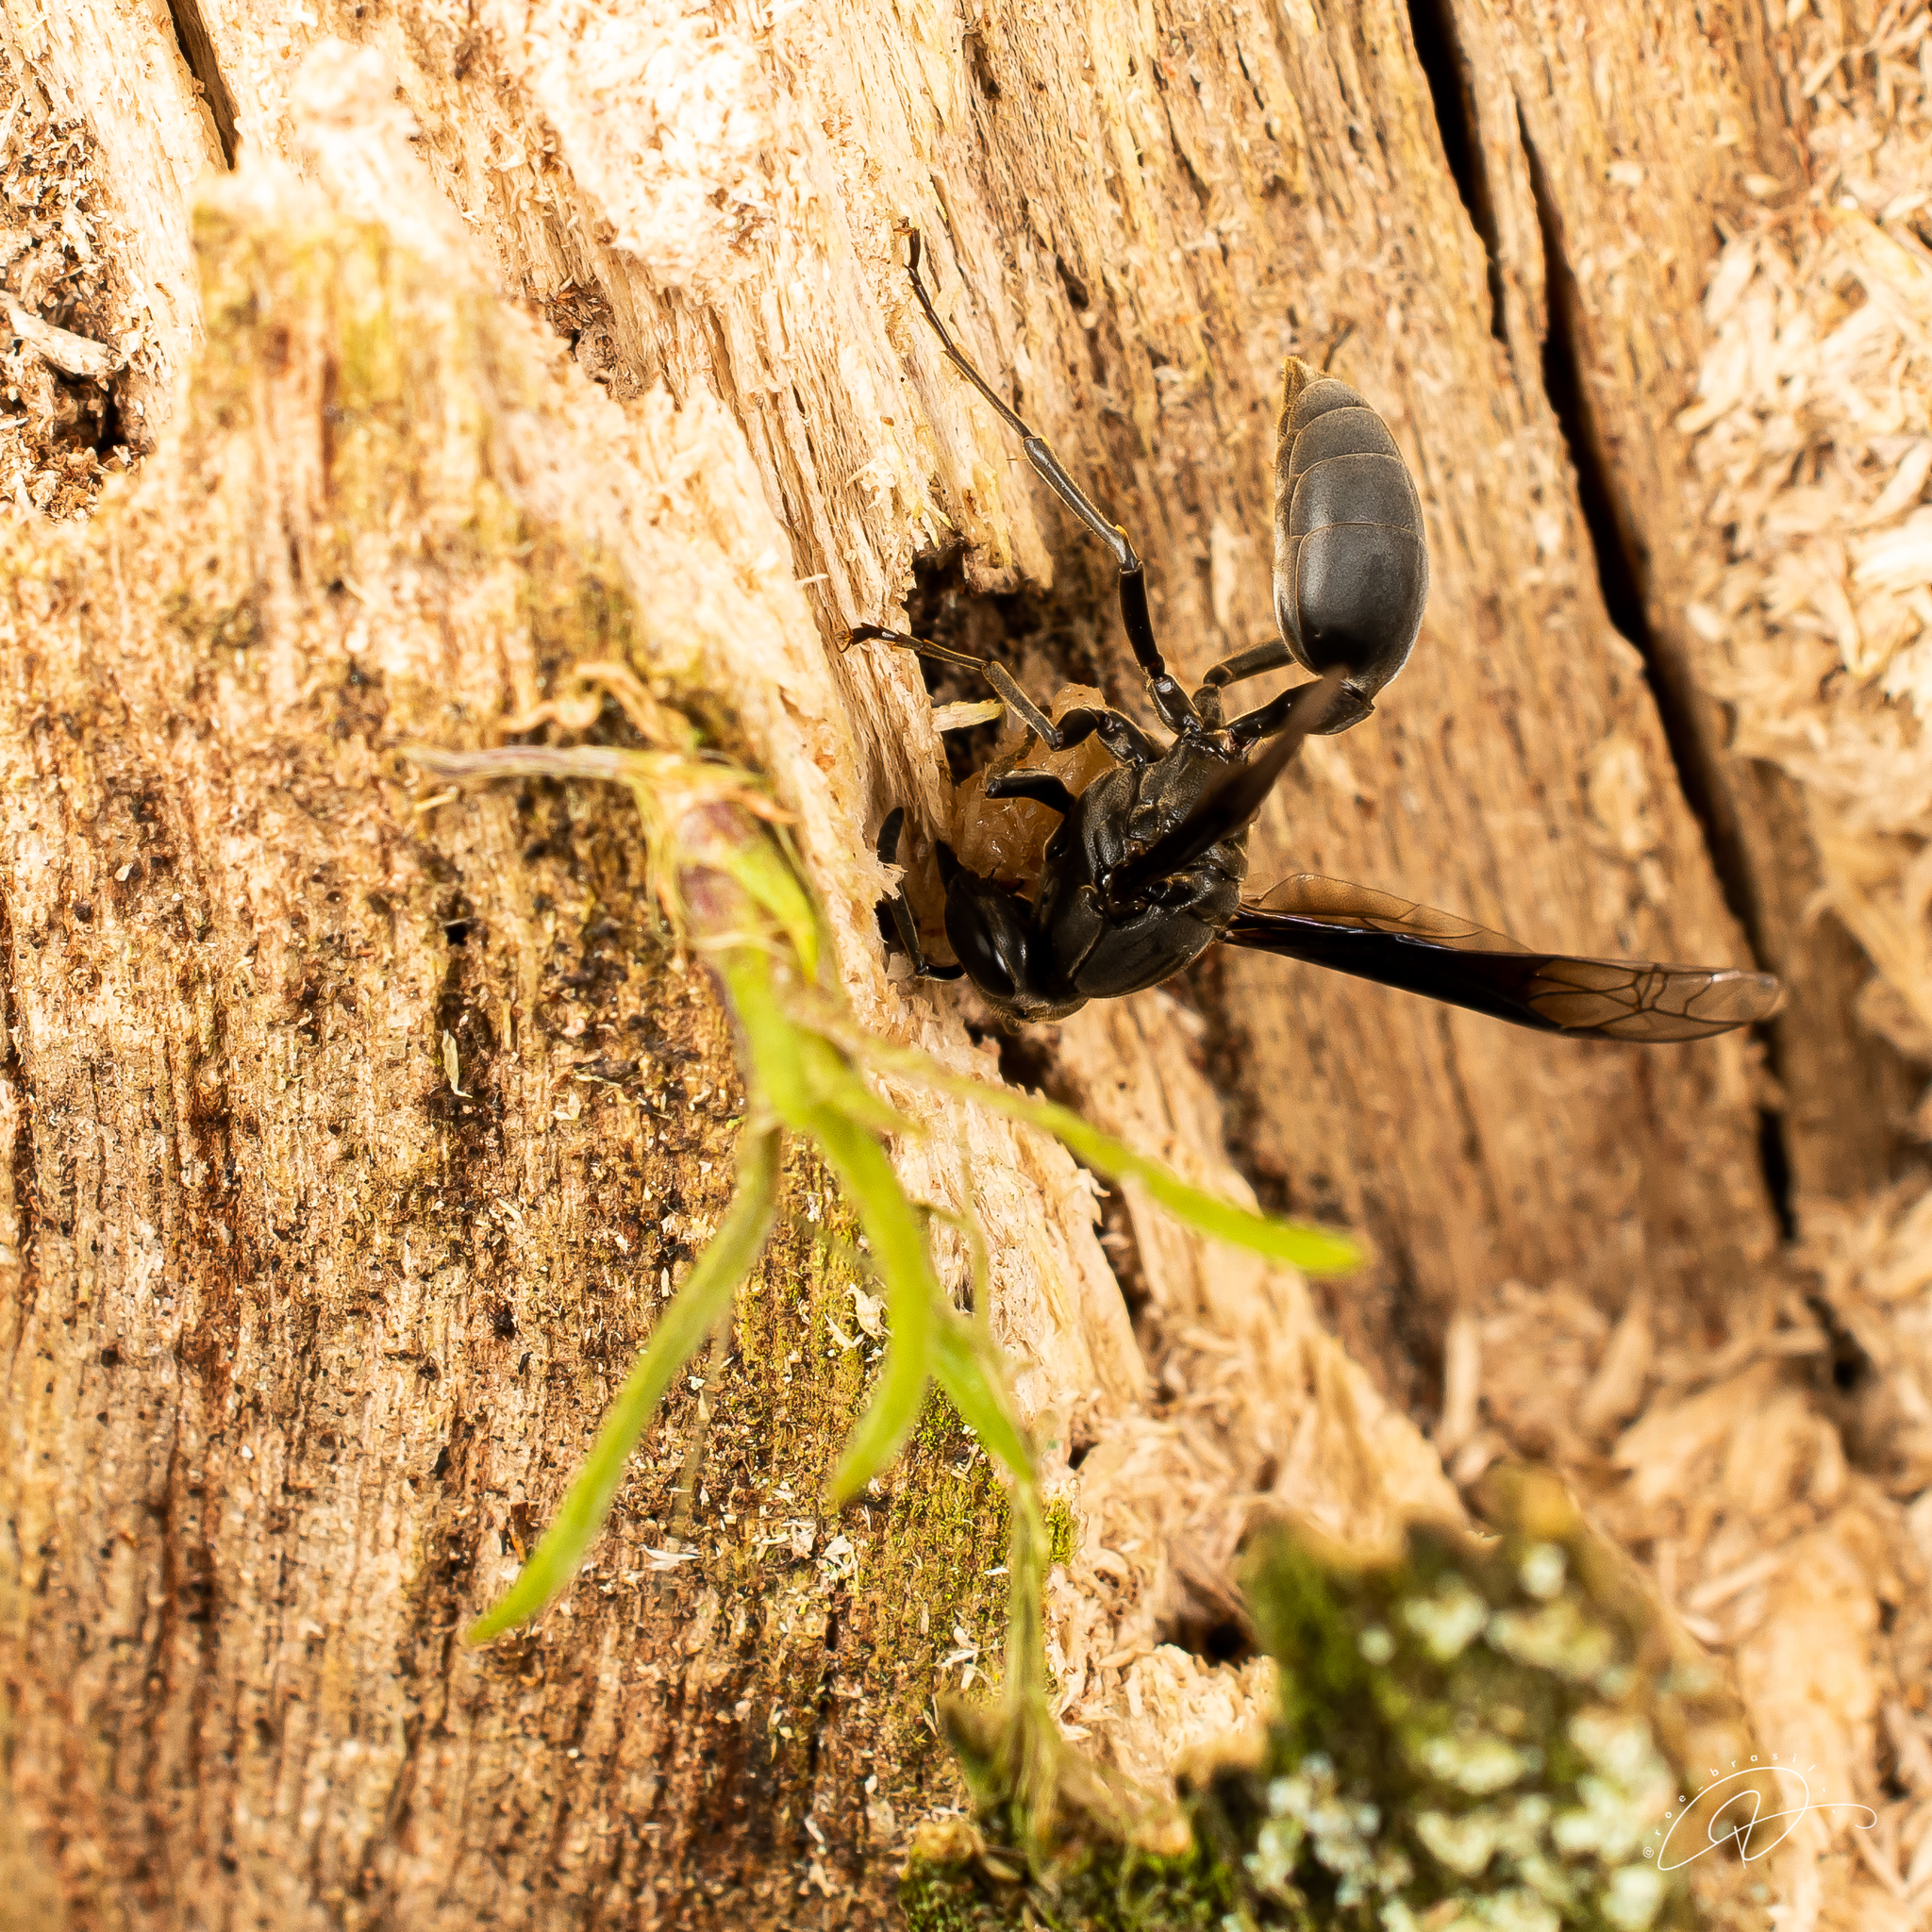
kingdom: Animalia
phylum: Arthropoda
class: Insecta
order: Hymenoptera
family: Eumenidae
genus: Polybia
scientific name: Polybia ignobilis
